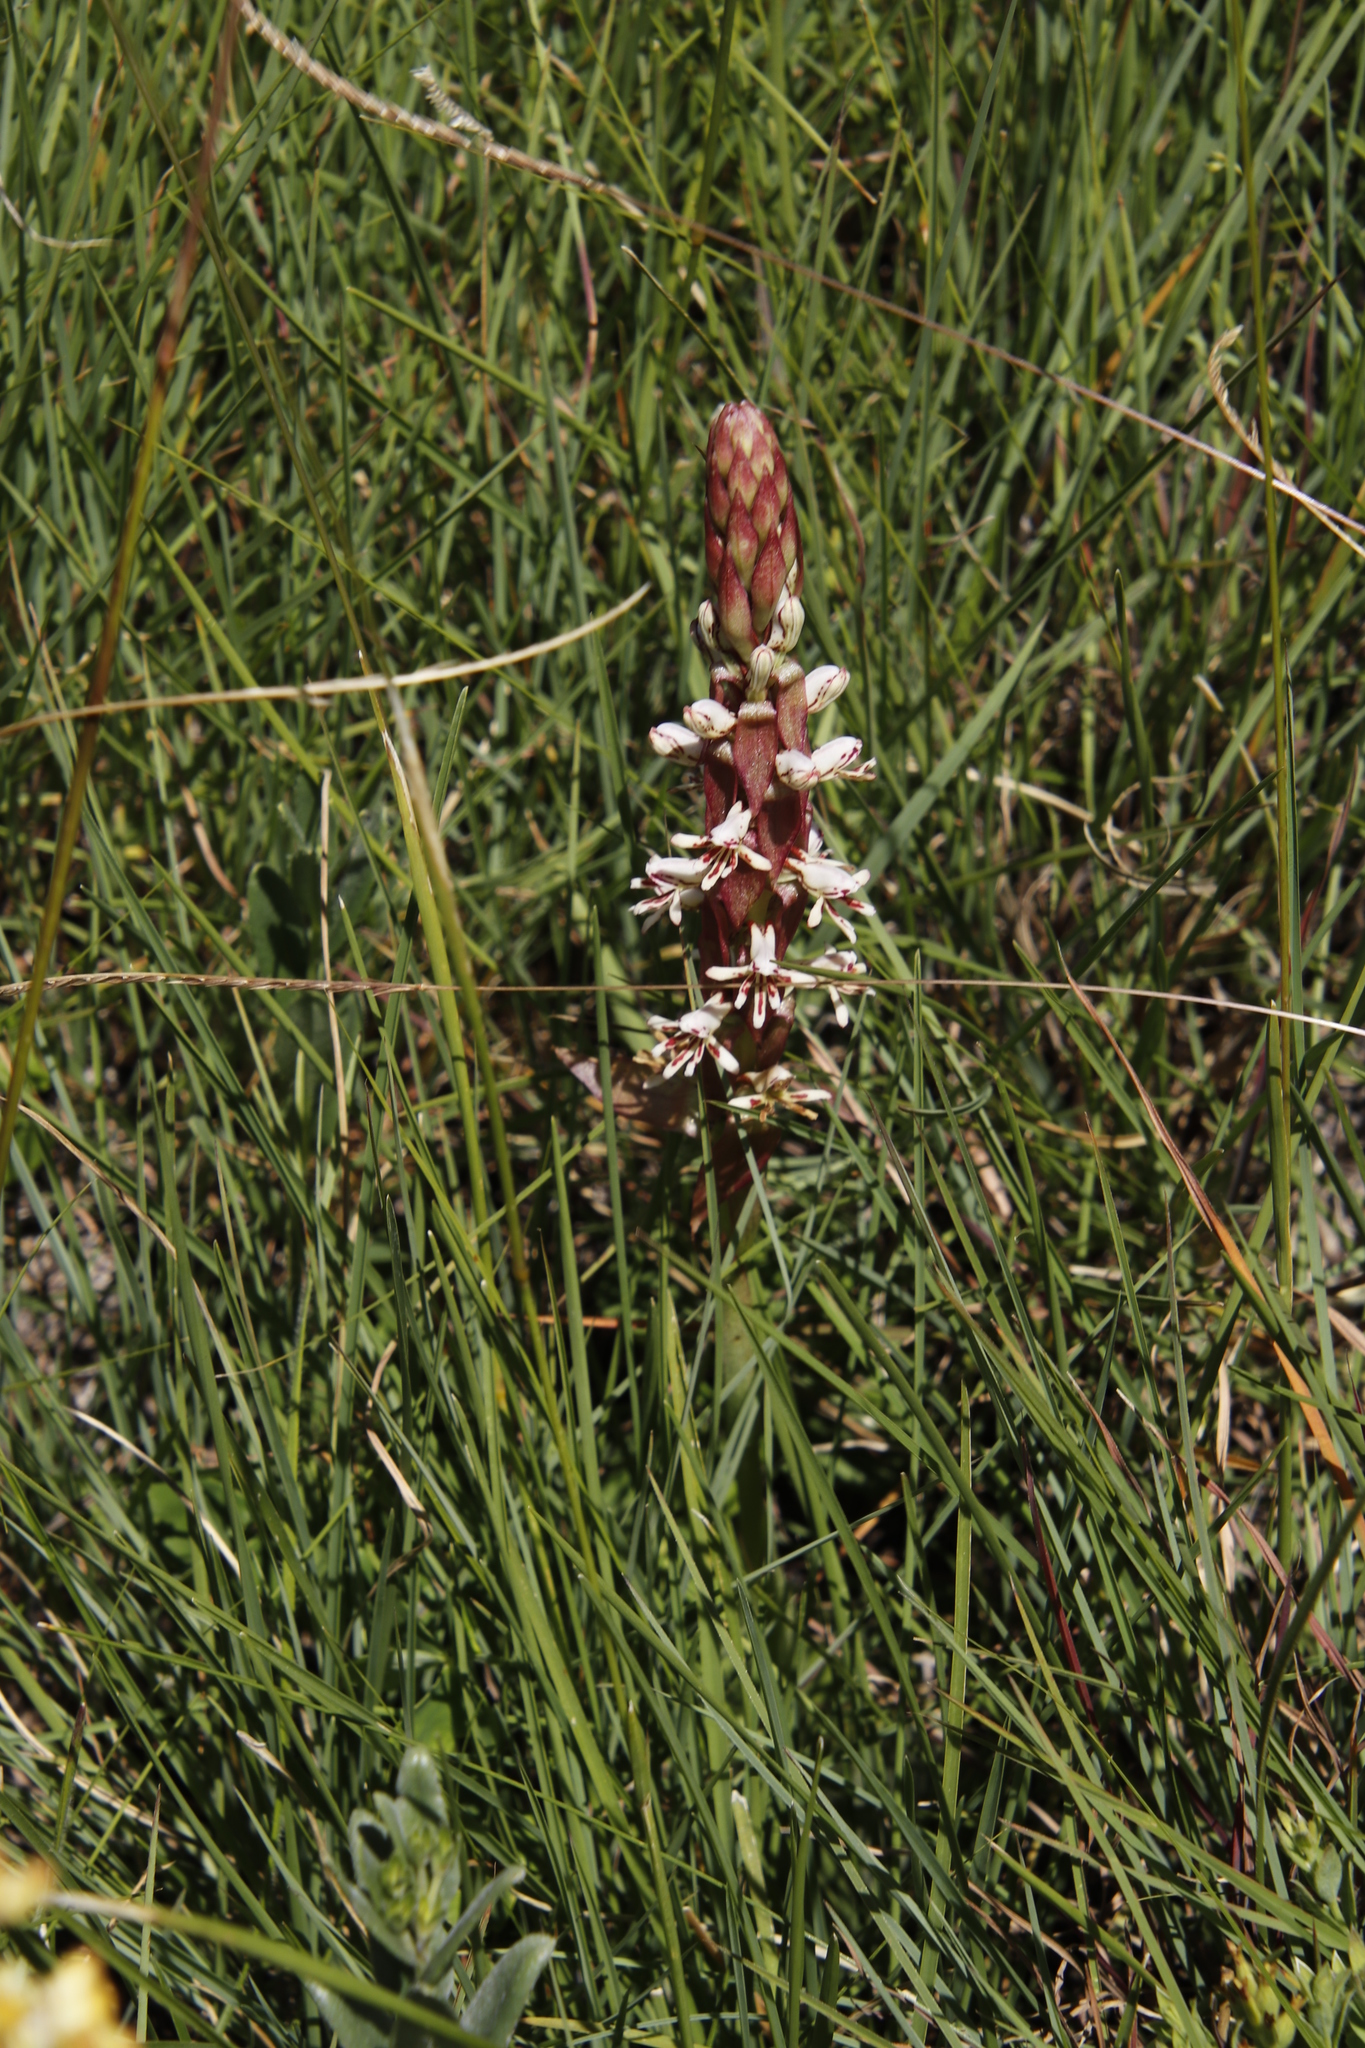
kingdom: Plantae
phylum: Tracheophyta
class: Liliopsida
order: Asparagales
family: Orchidaceae
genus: Satyrium
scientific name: Satyrium cristatum
